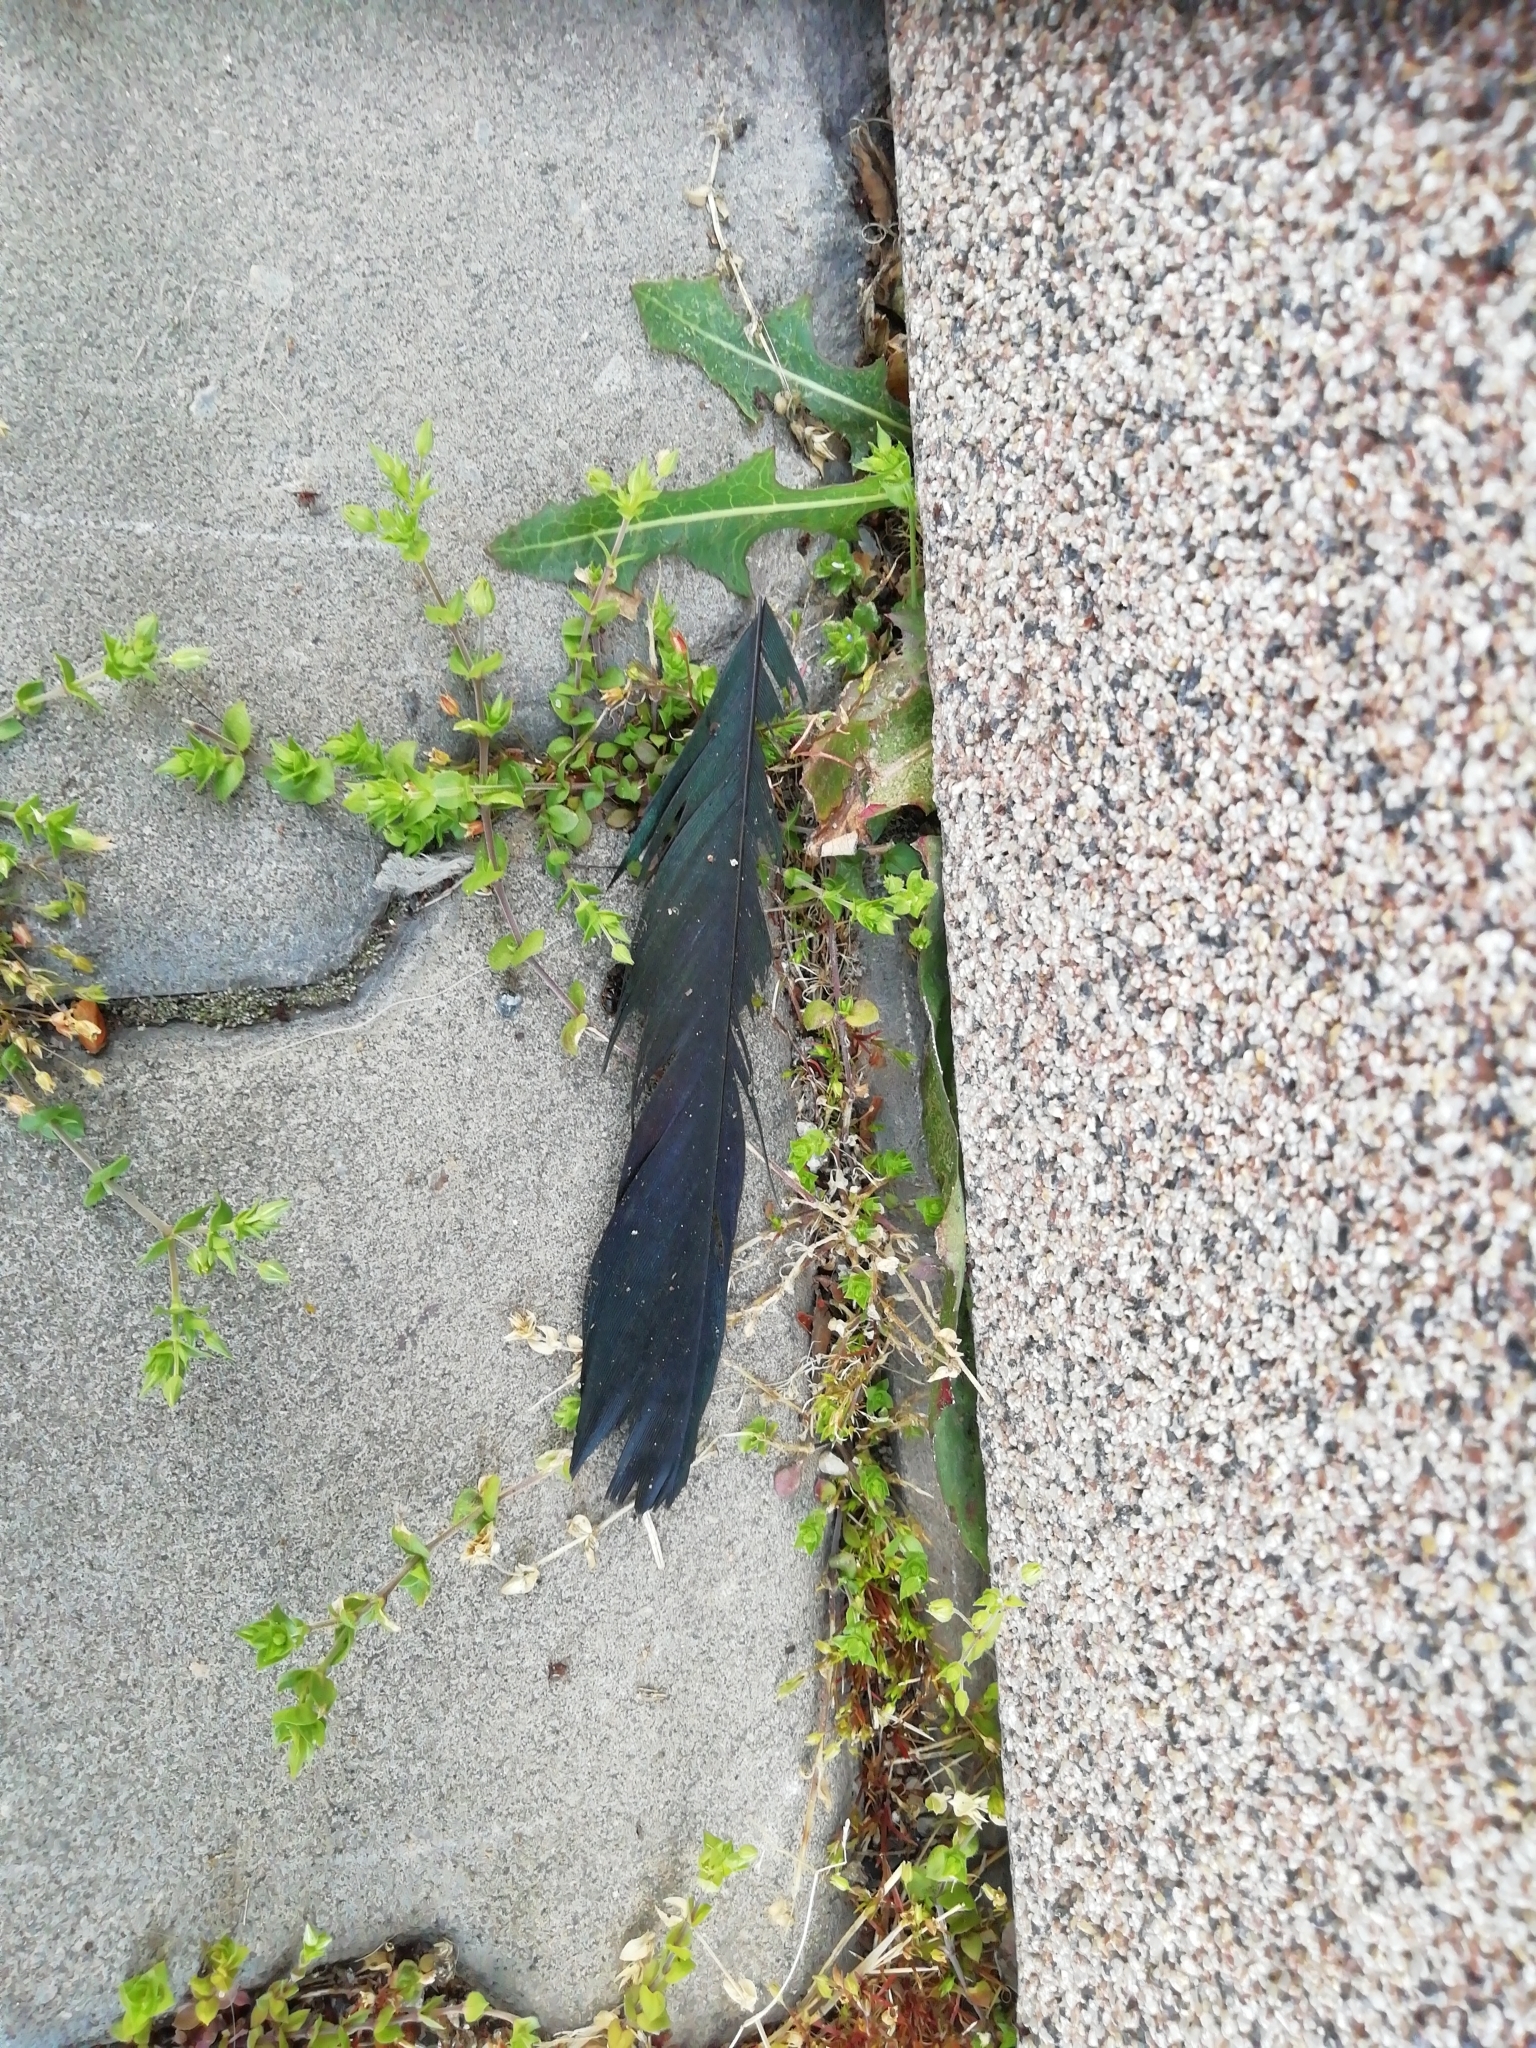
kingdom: Animalia
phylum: Chordata
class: Aves
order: Passeriformes
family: Corvidae
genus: Pica
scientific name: Pica pica
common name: Eurasian magpie
